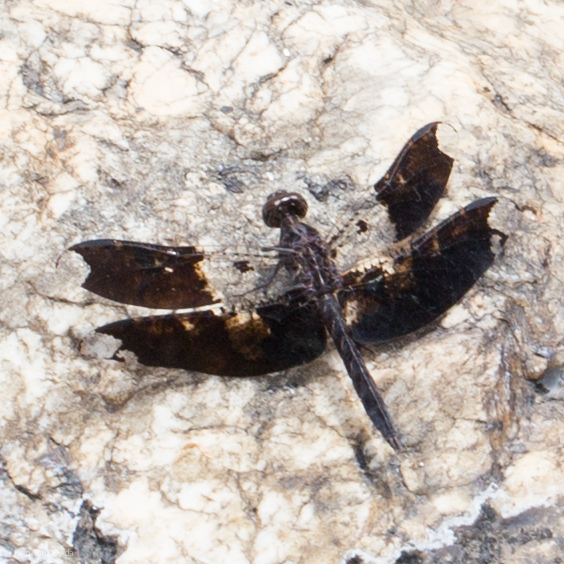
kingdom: Animalia
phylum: Arthropoda
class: Insecta
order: Odonata
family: Libellulidae
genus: Pseudoleon
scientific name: Pseudoleon superbus
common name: Filigree skimmer
